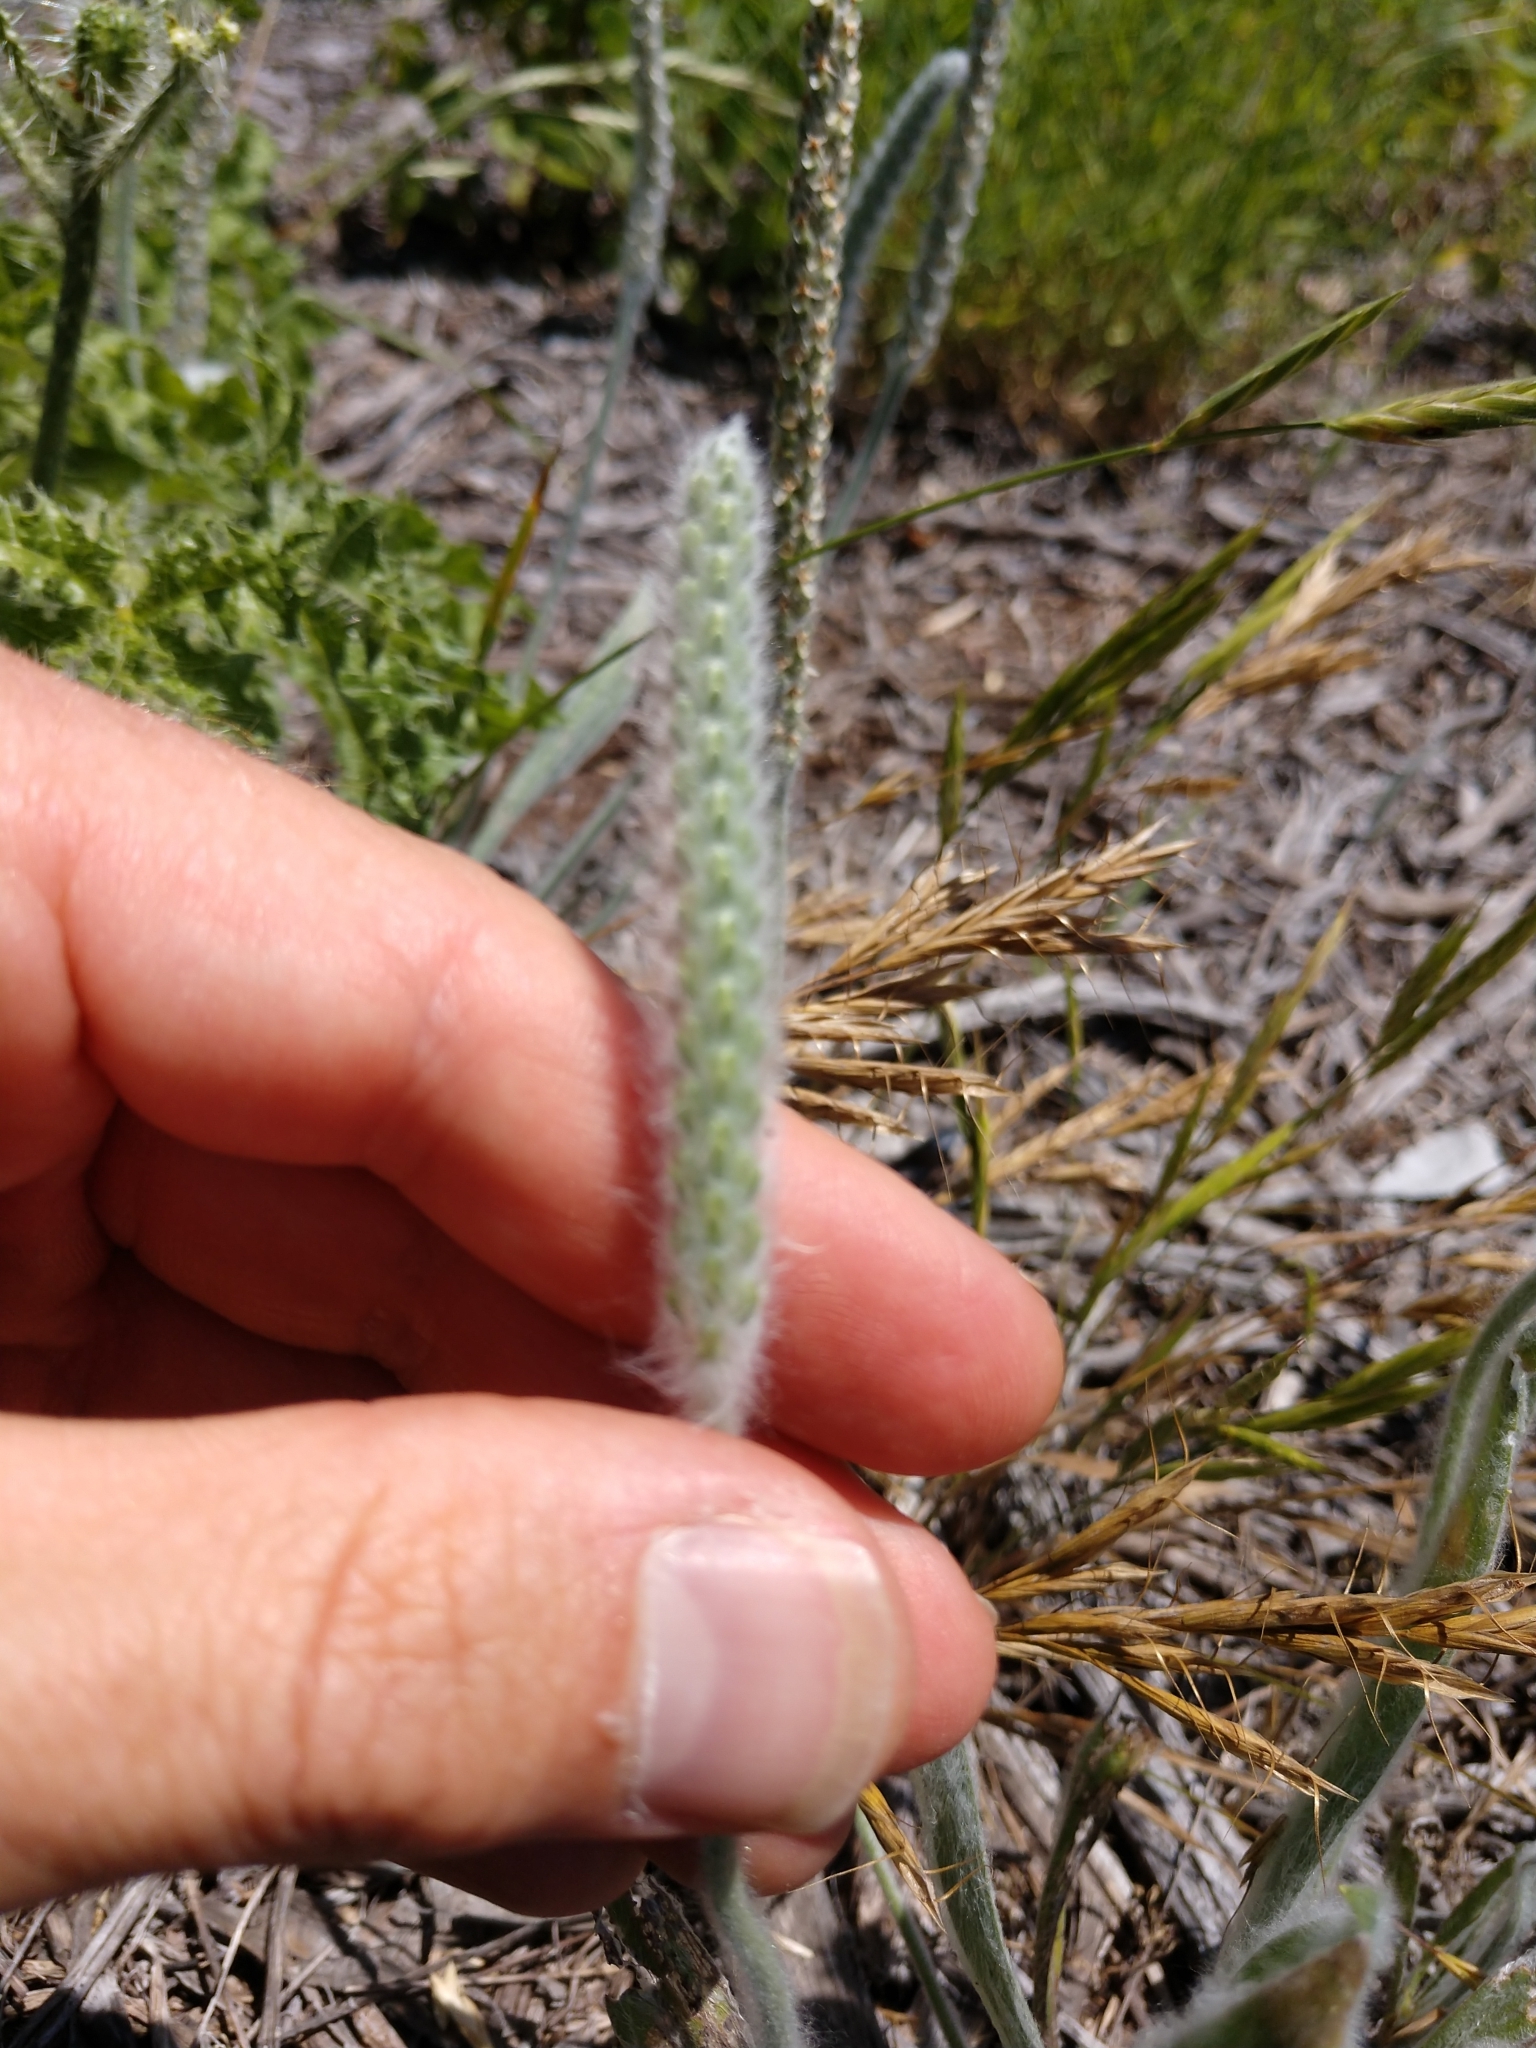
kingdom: Plantae
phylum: Tracheophyta
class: Magnoliopsida
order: Lamiales
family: Plantaginaceae
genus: Plantago
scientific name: Plantago patagonica
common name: Patagonia indian-wheat
